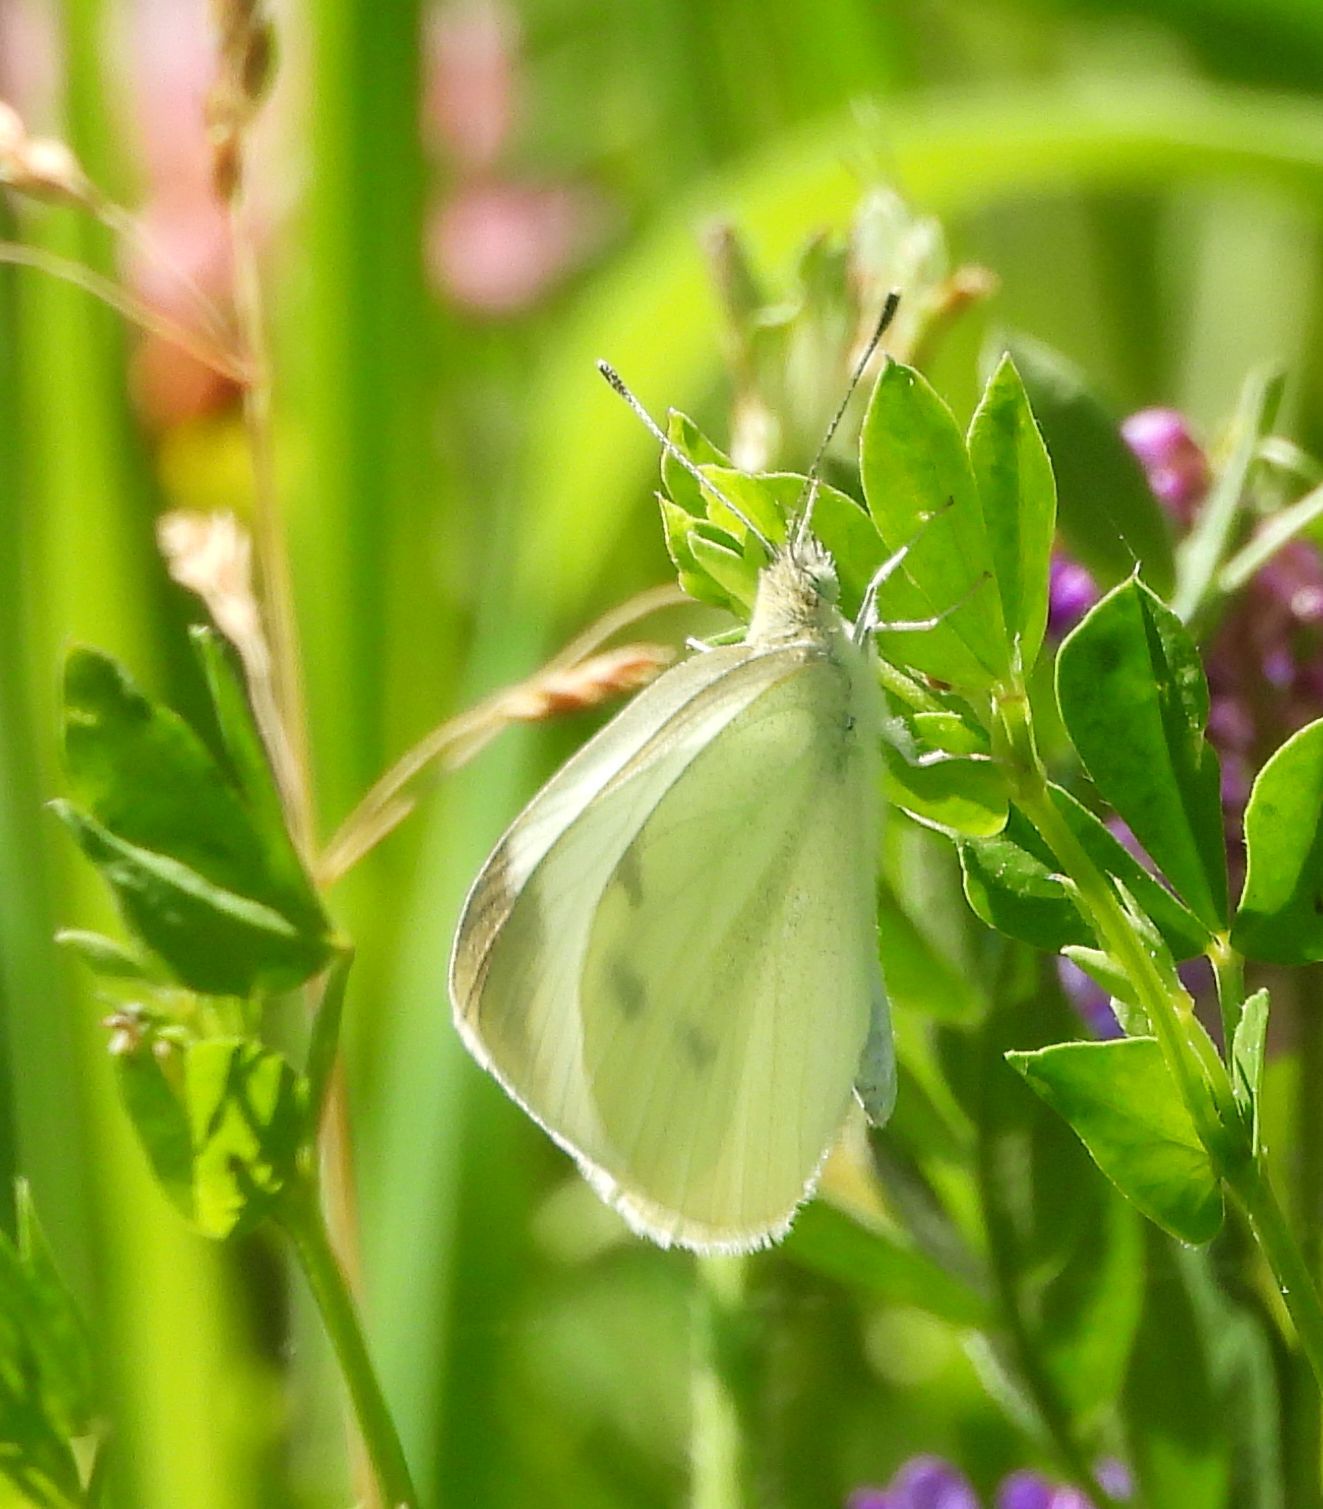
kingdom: Animalia
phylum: Arthropoda
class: Insecta
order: Lepidoptera
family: Pieridae
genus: Pieris
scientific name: Pieris rapae
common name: Small white
